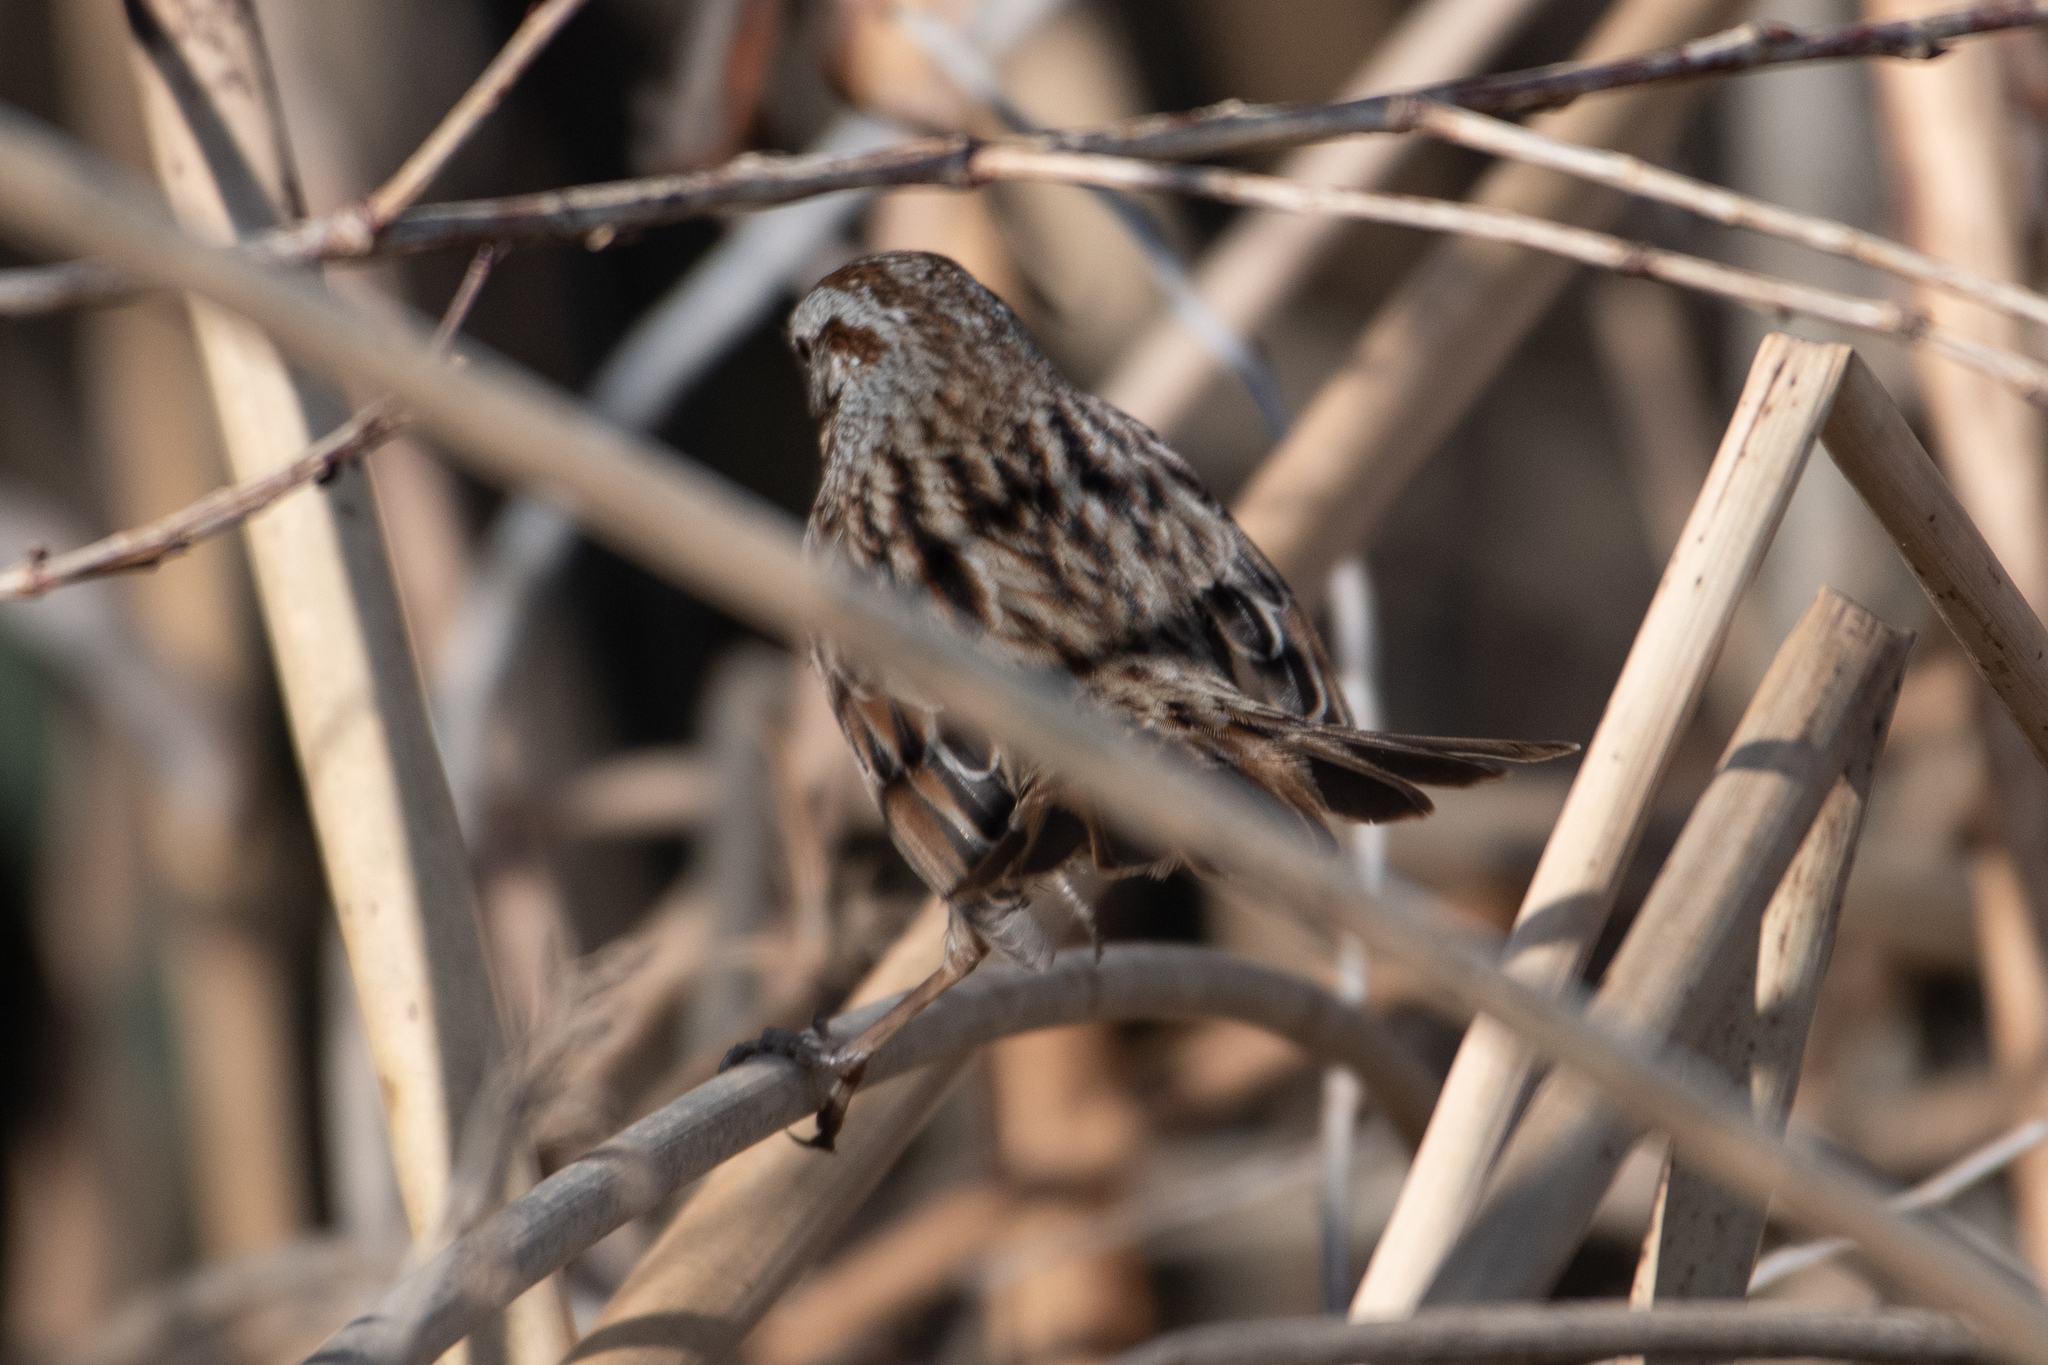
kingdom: Animalia
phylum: Chordata
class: Aves
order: Passeriformes
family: Passerellidae
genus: Melospiza
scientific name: Melospiza melodia
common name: Song sparrow
